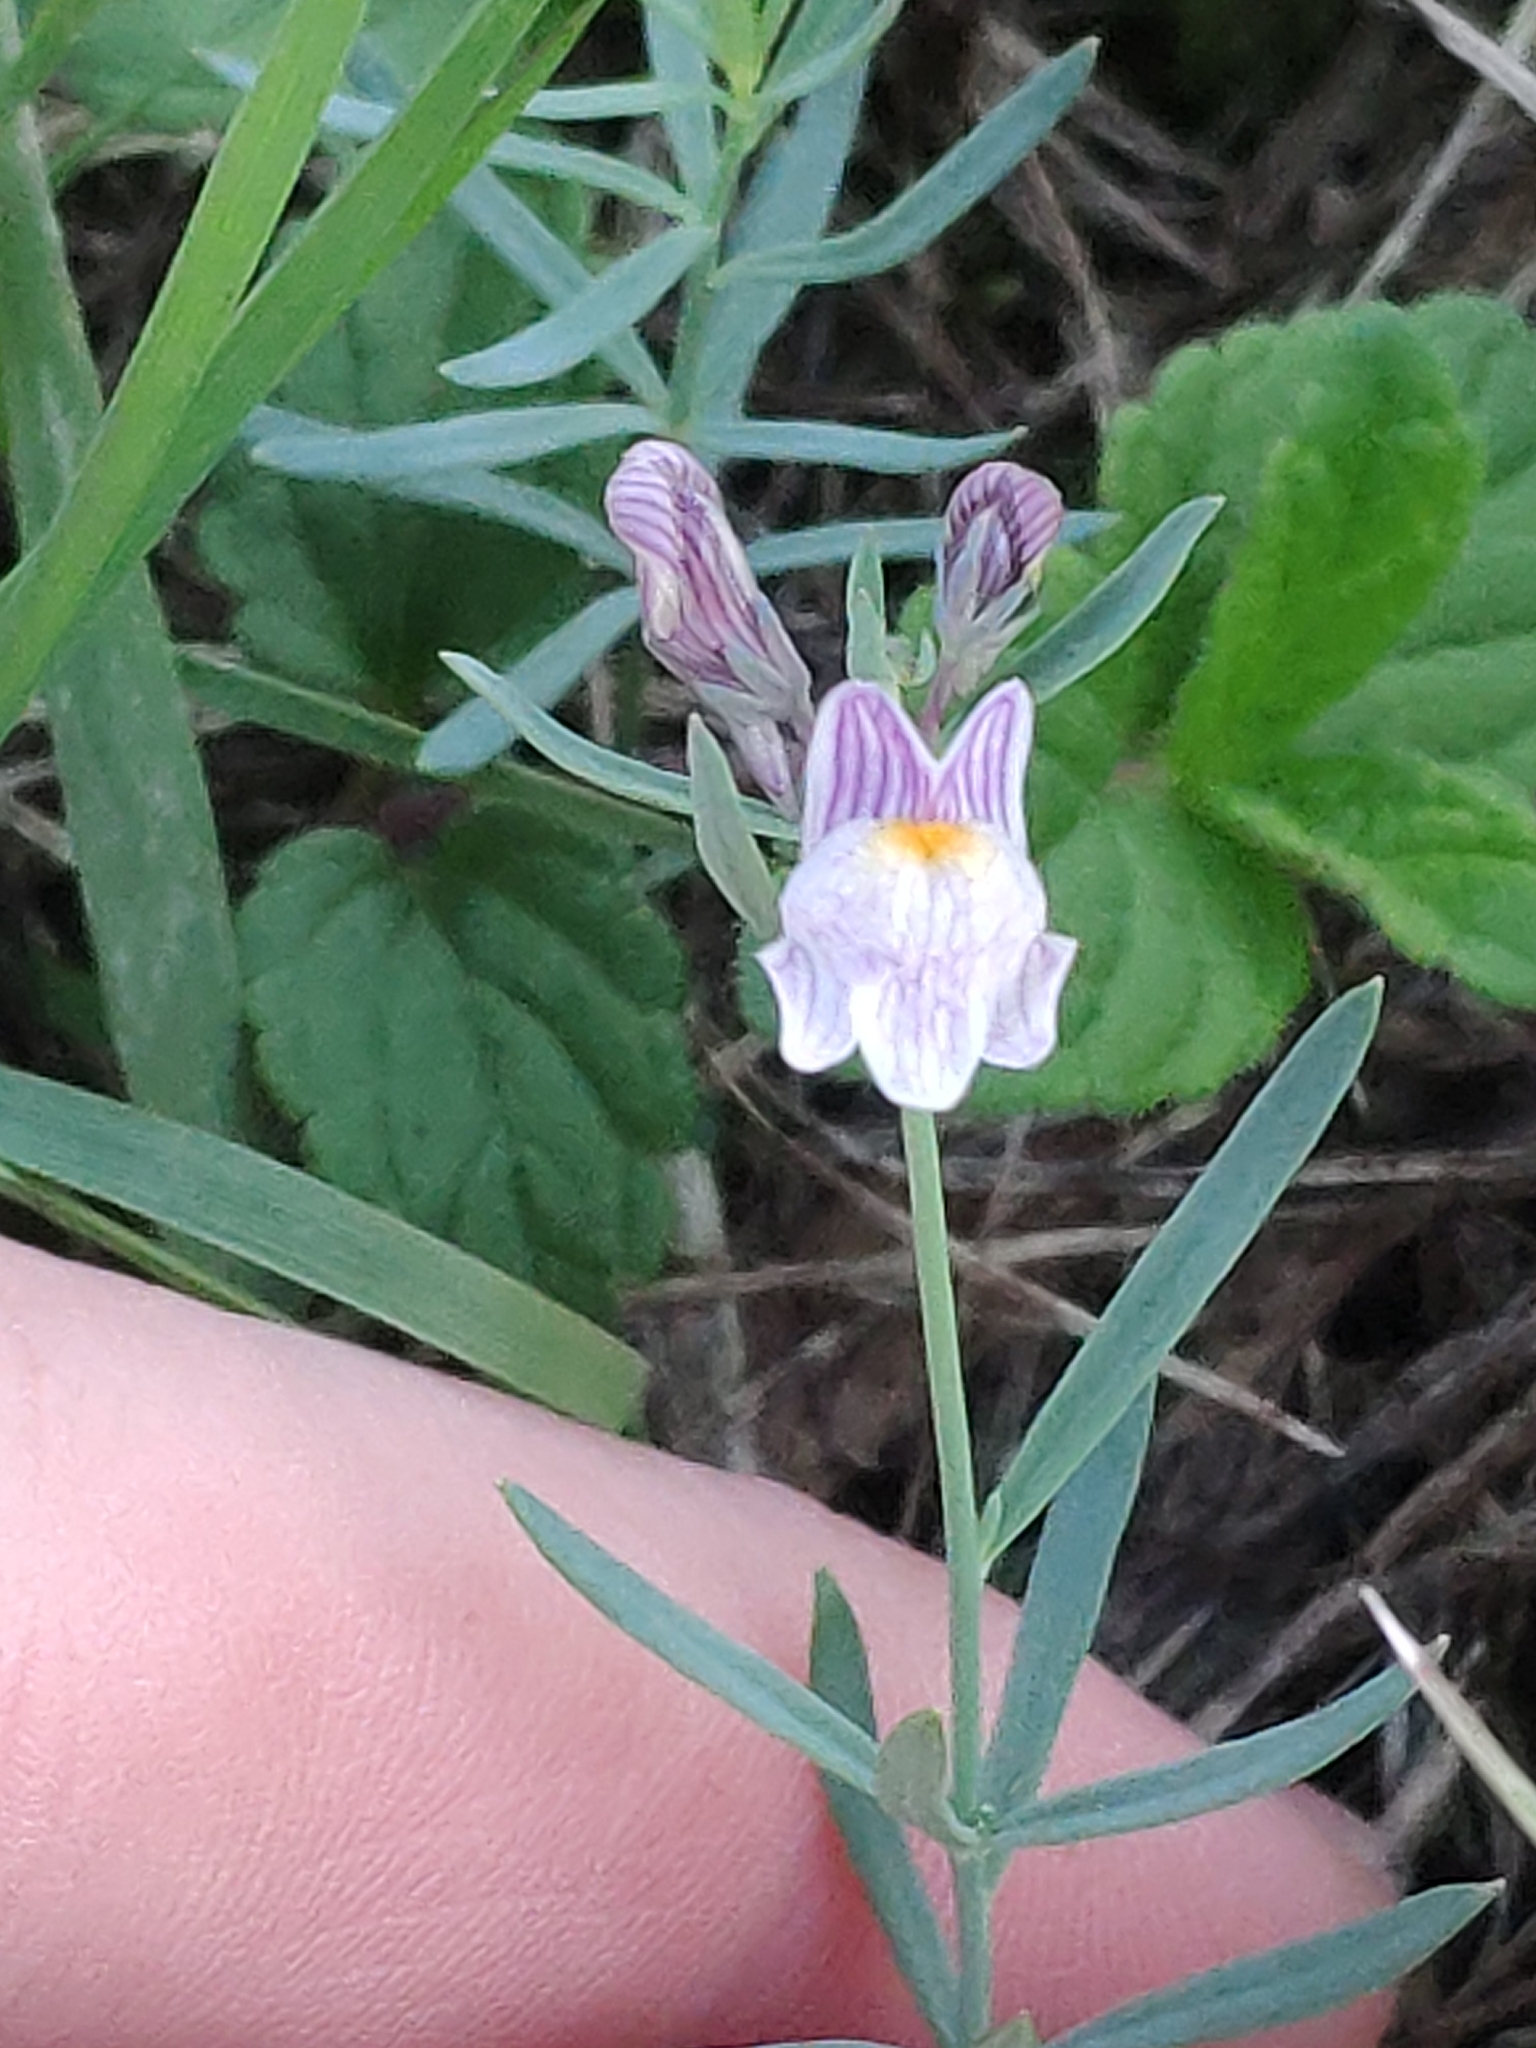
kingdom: Plantae
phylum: Tracheophyta
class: Magnoliopsida
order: Lamiales
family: Plantaginaceae
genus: Linaria
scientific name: Linaria repens
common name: Pale toadflax
